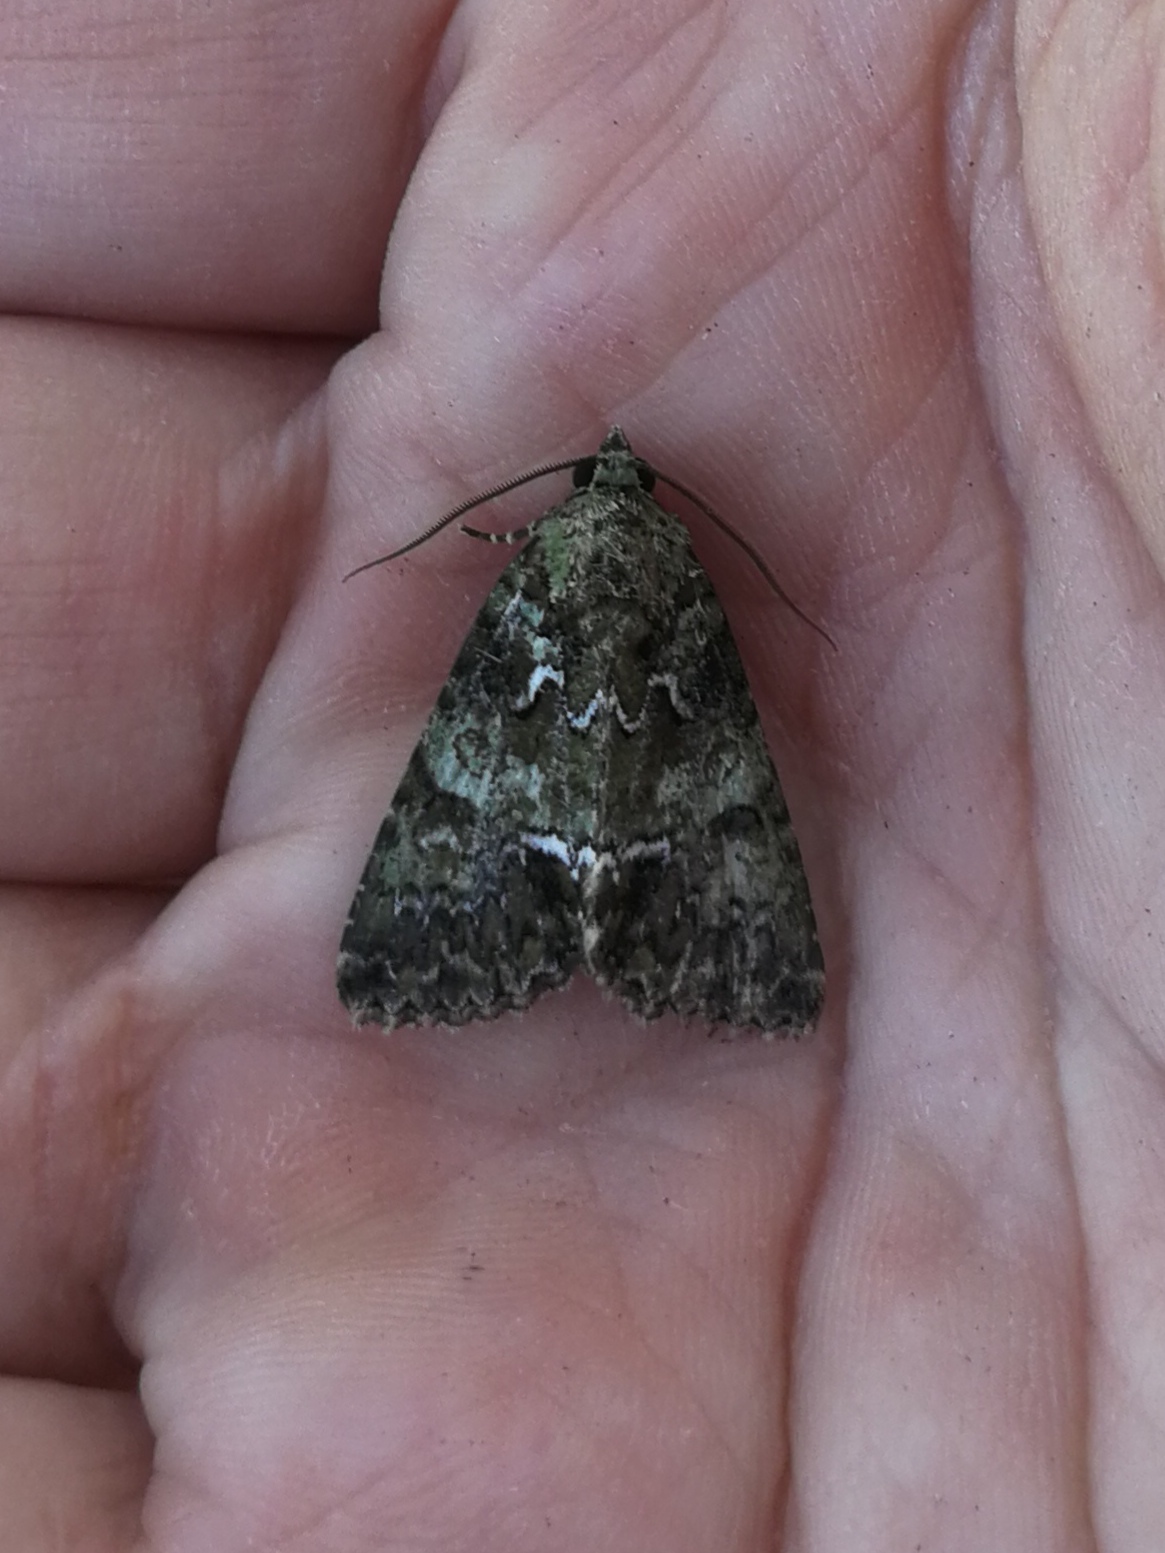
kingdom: Animalia
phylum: Arthropoda
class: Insecta
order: Lepidoptera
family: Noctuidae
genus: Polyphaenis
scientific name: Polyphaenis sericata
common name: Guernsey underwing
